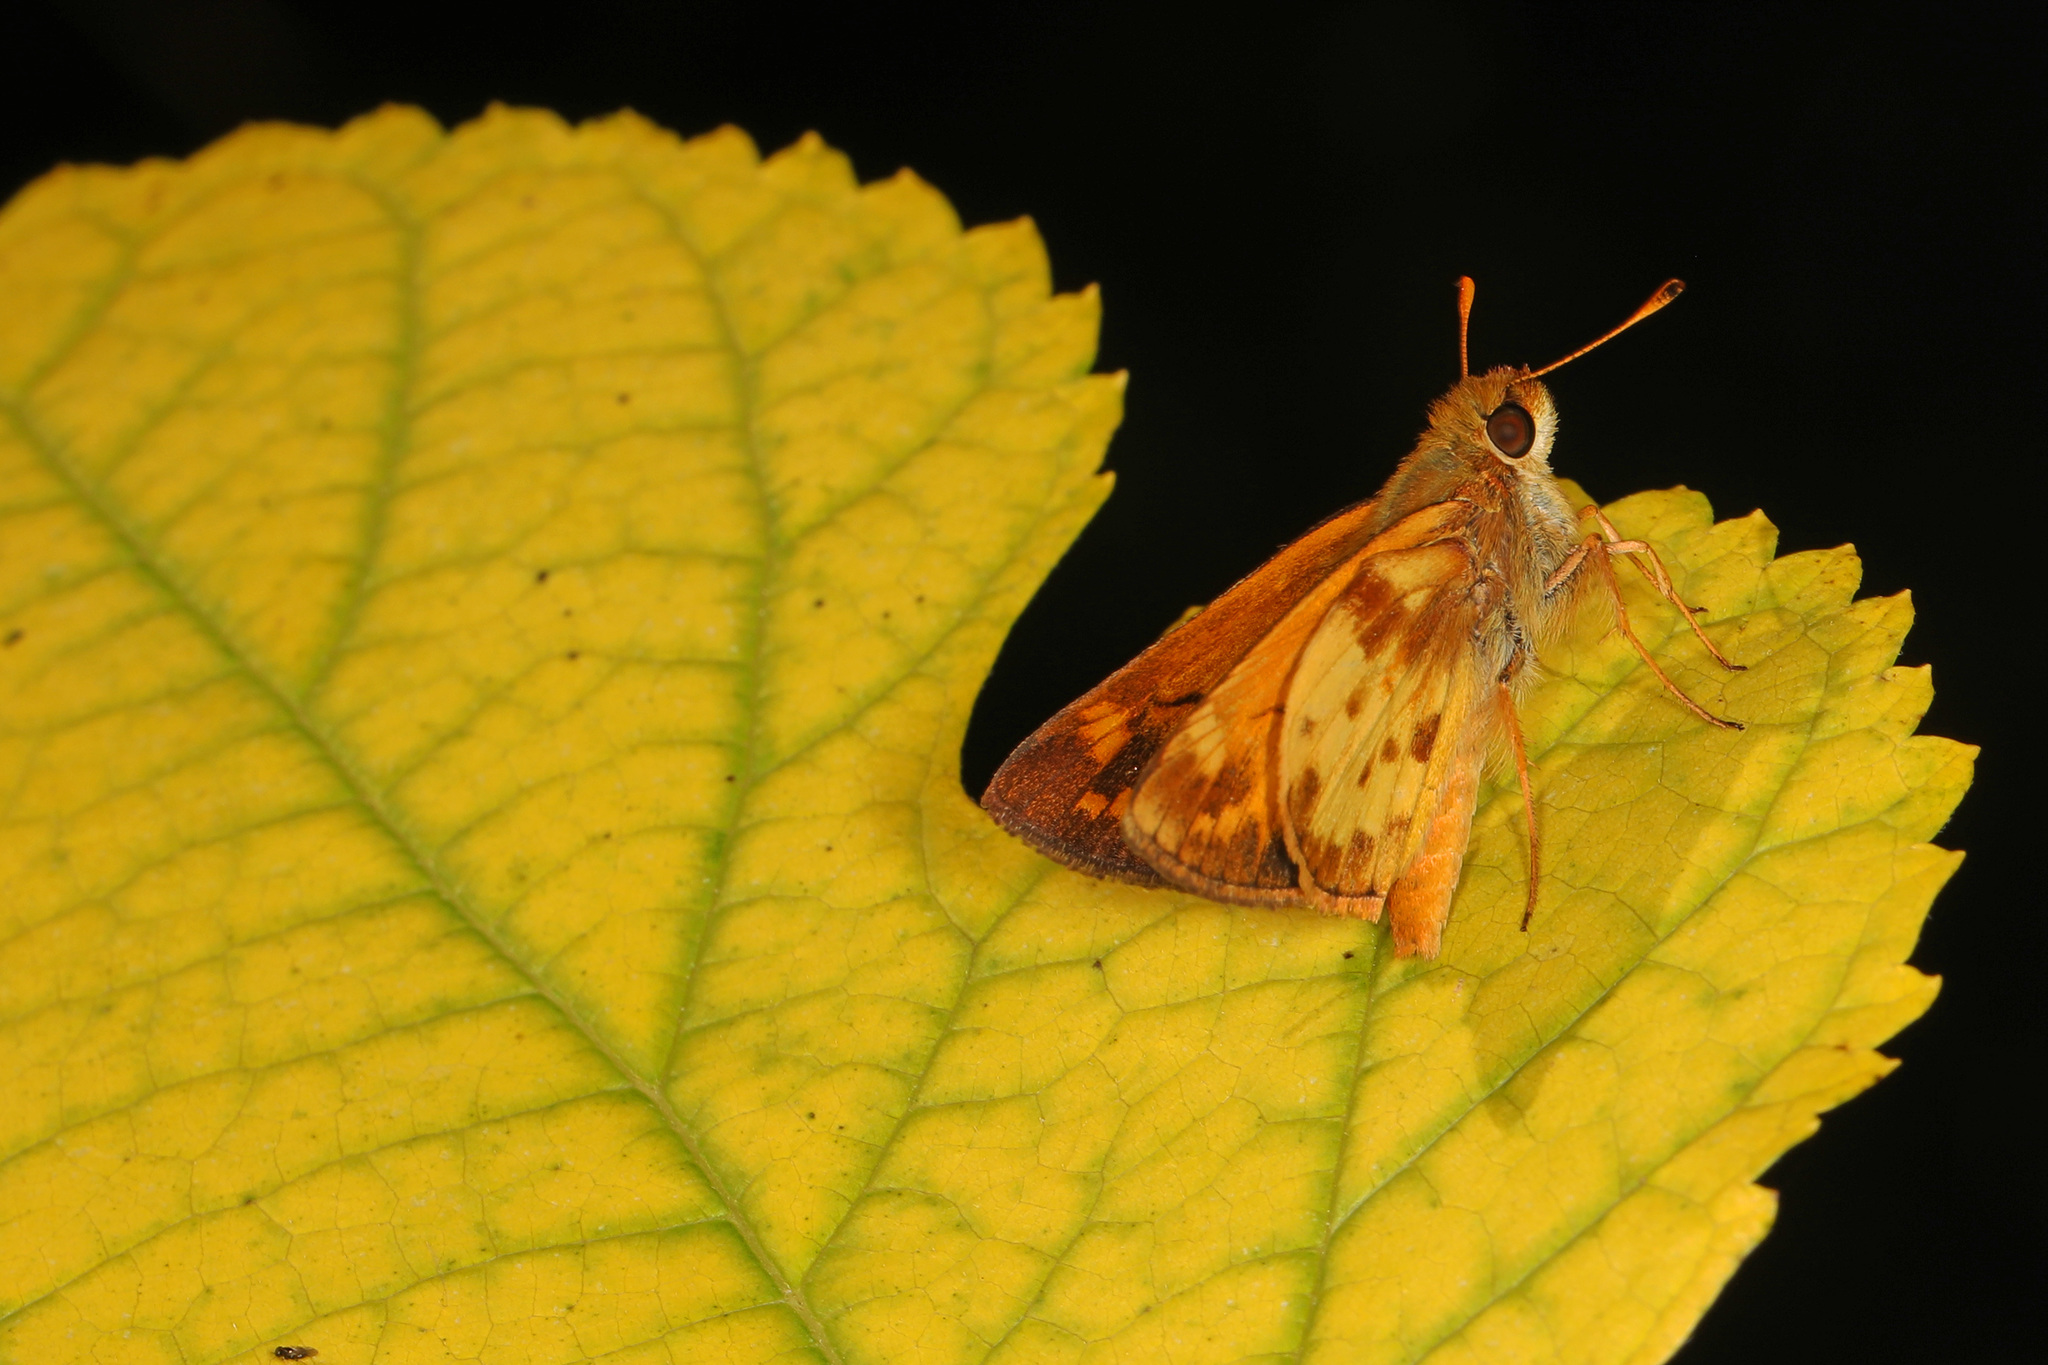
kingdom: Animalia
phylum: Arthropoda
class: Insecta
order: Lepidoptera
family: Hesperiidae
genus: Lon
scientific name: Lon zabulon
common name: Zabulon skipper
